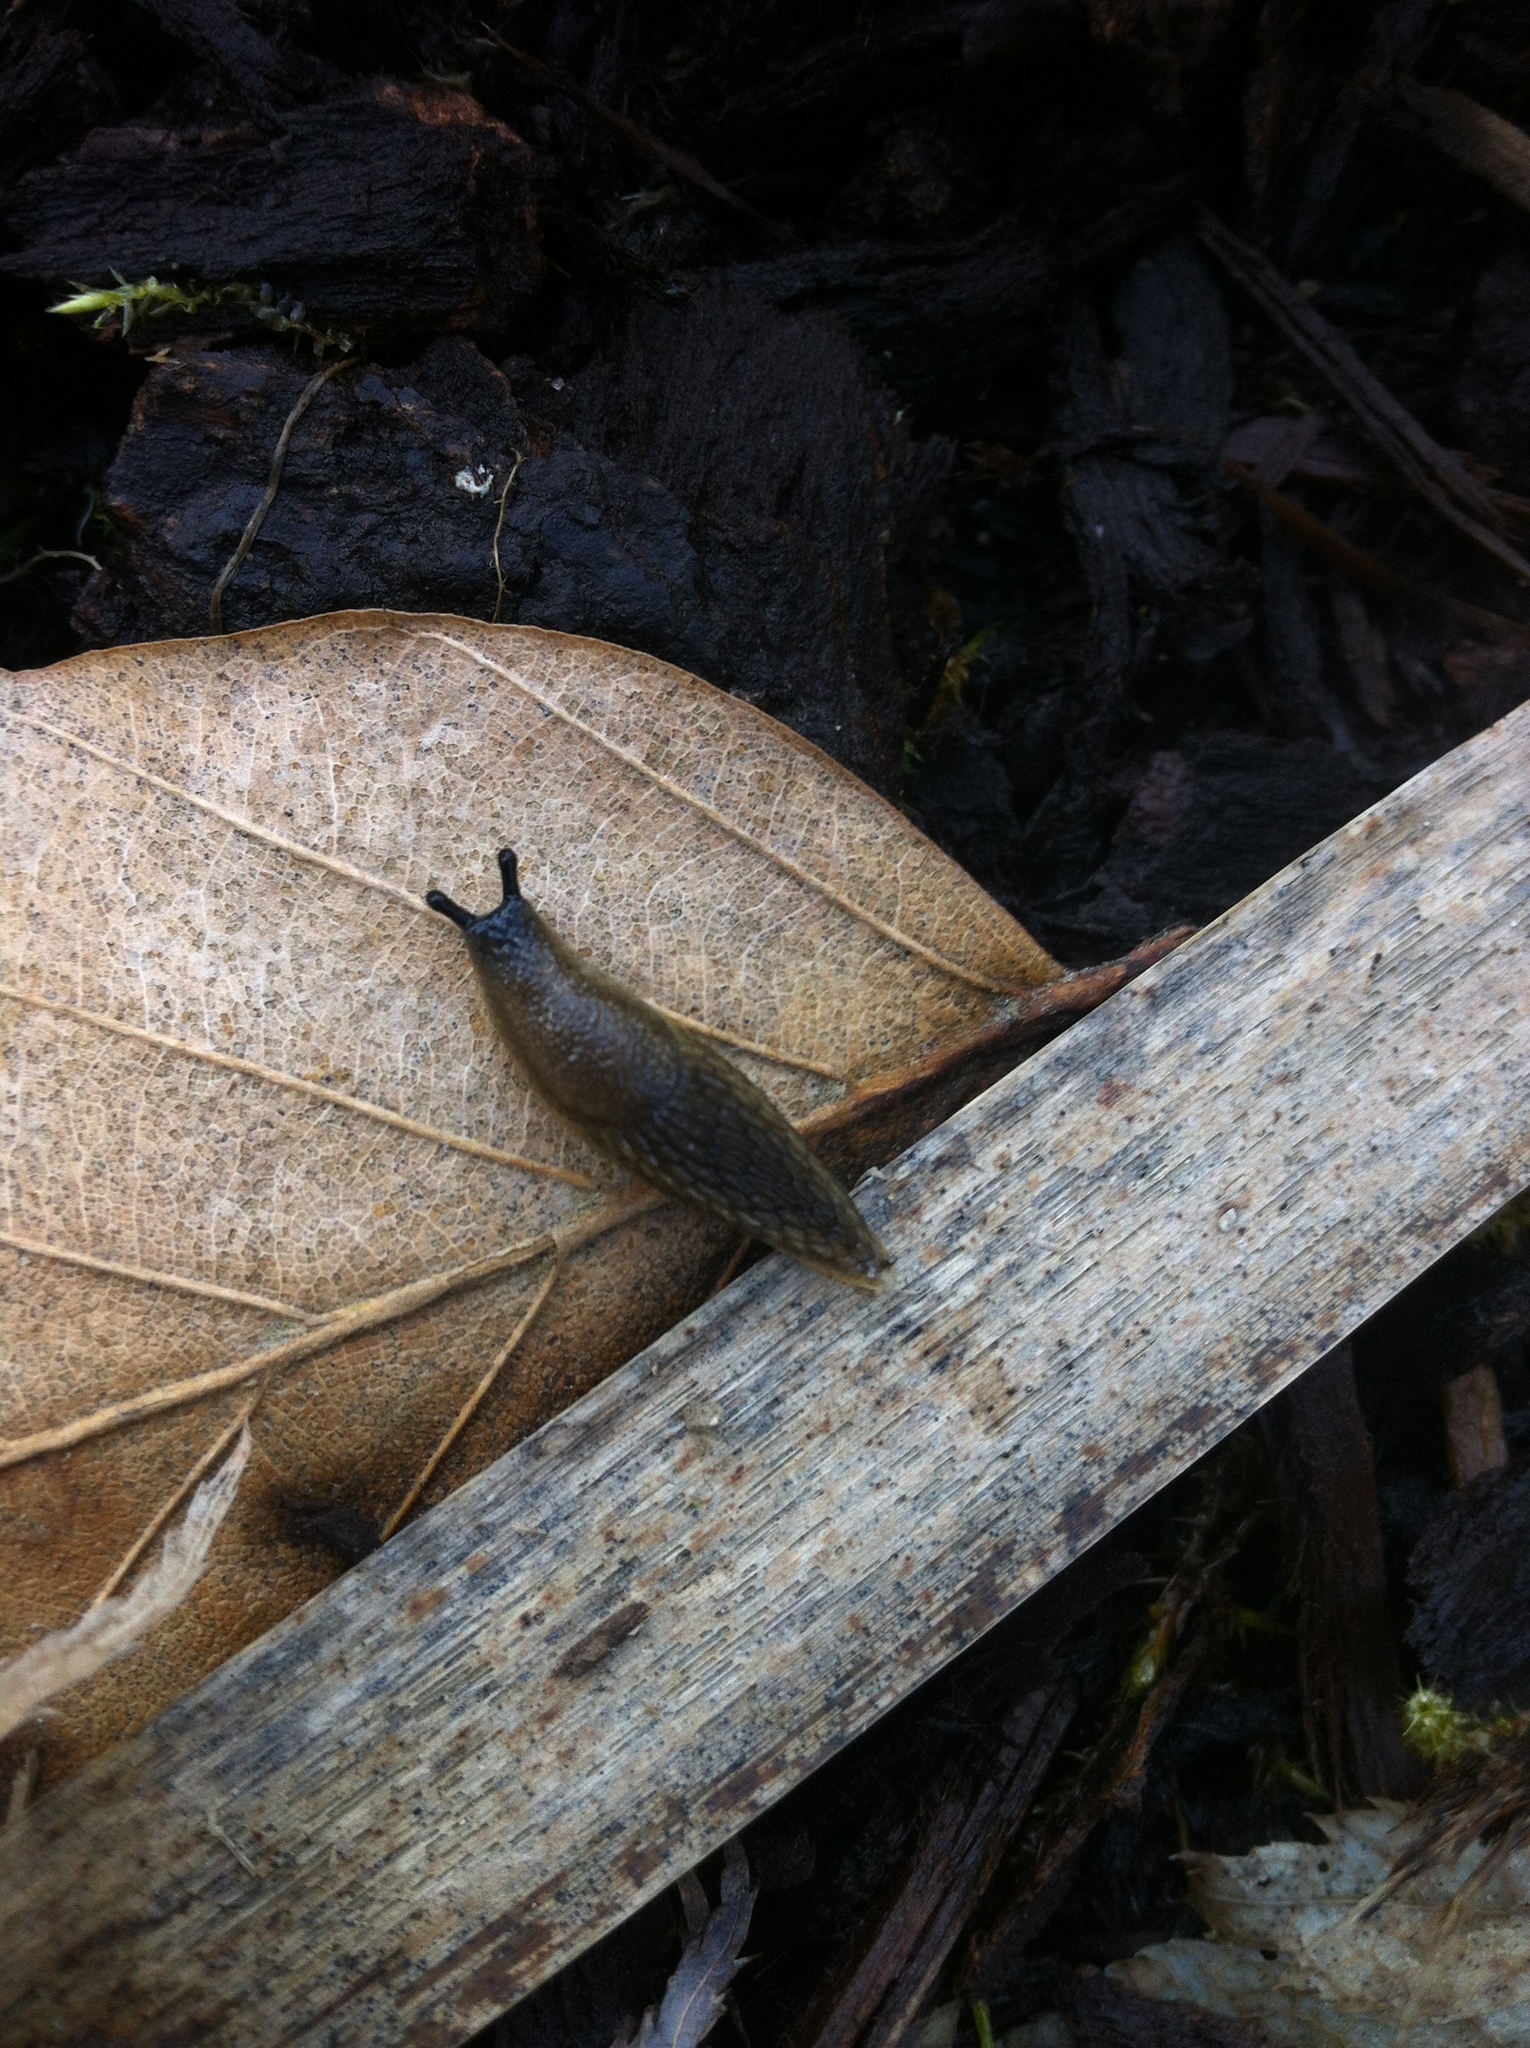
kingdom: Animalia
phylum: Mollusca
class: Gastropoda
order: Stylommatophora
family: Arionidae
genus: Arion
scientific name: Arion subfuscus
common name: Dusky arion
